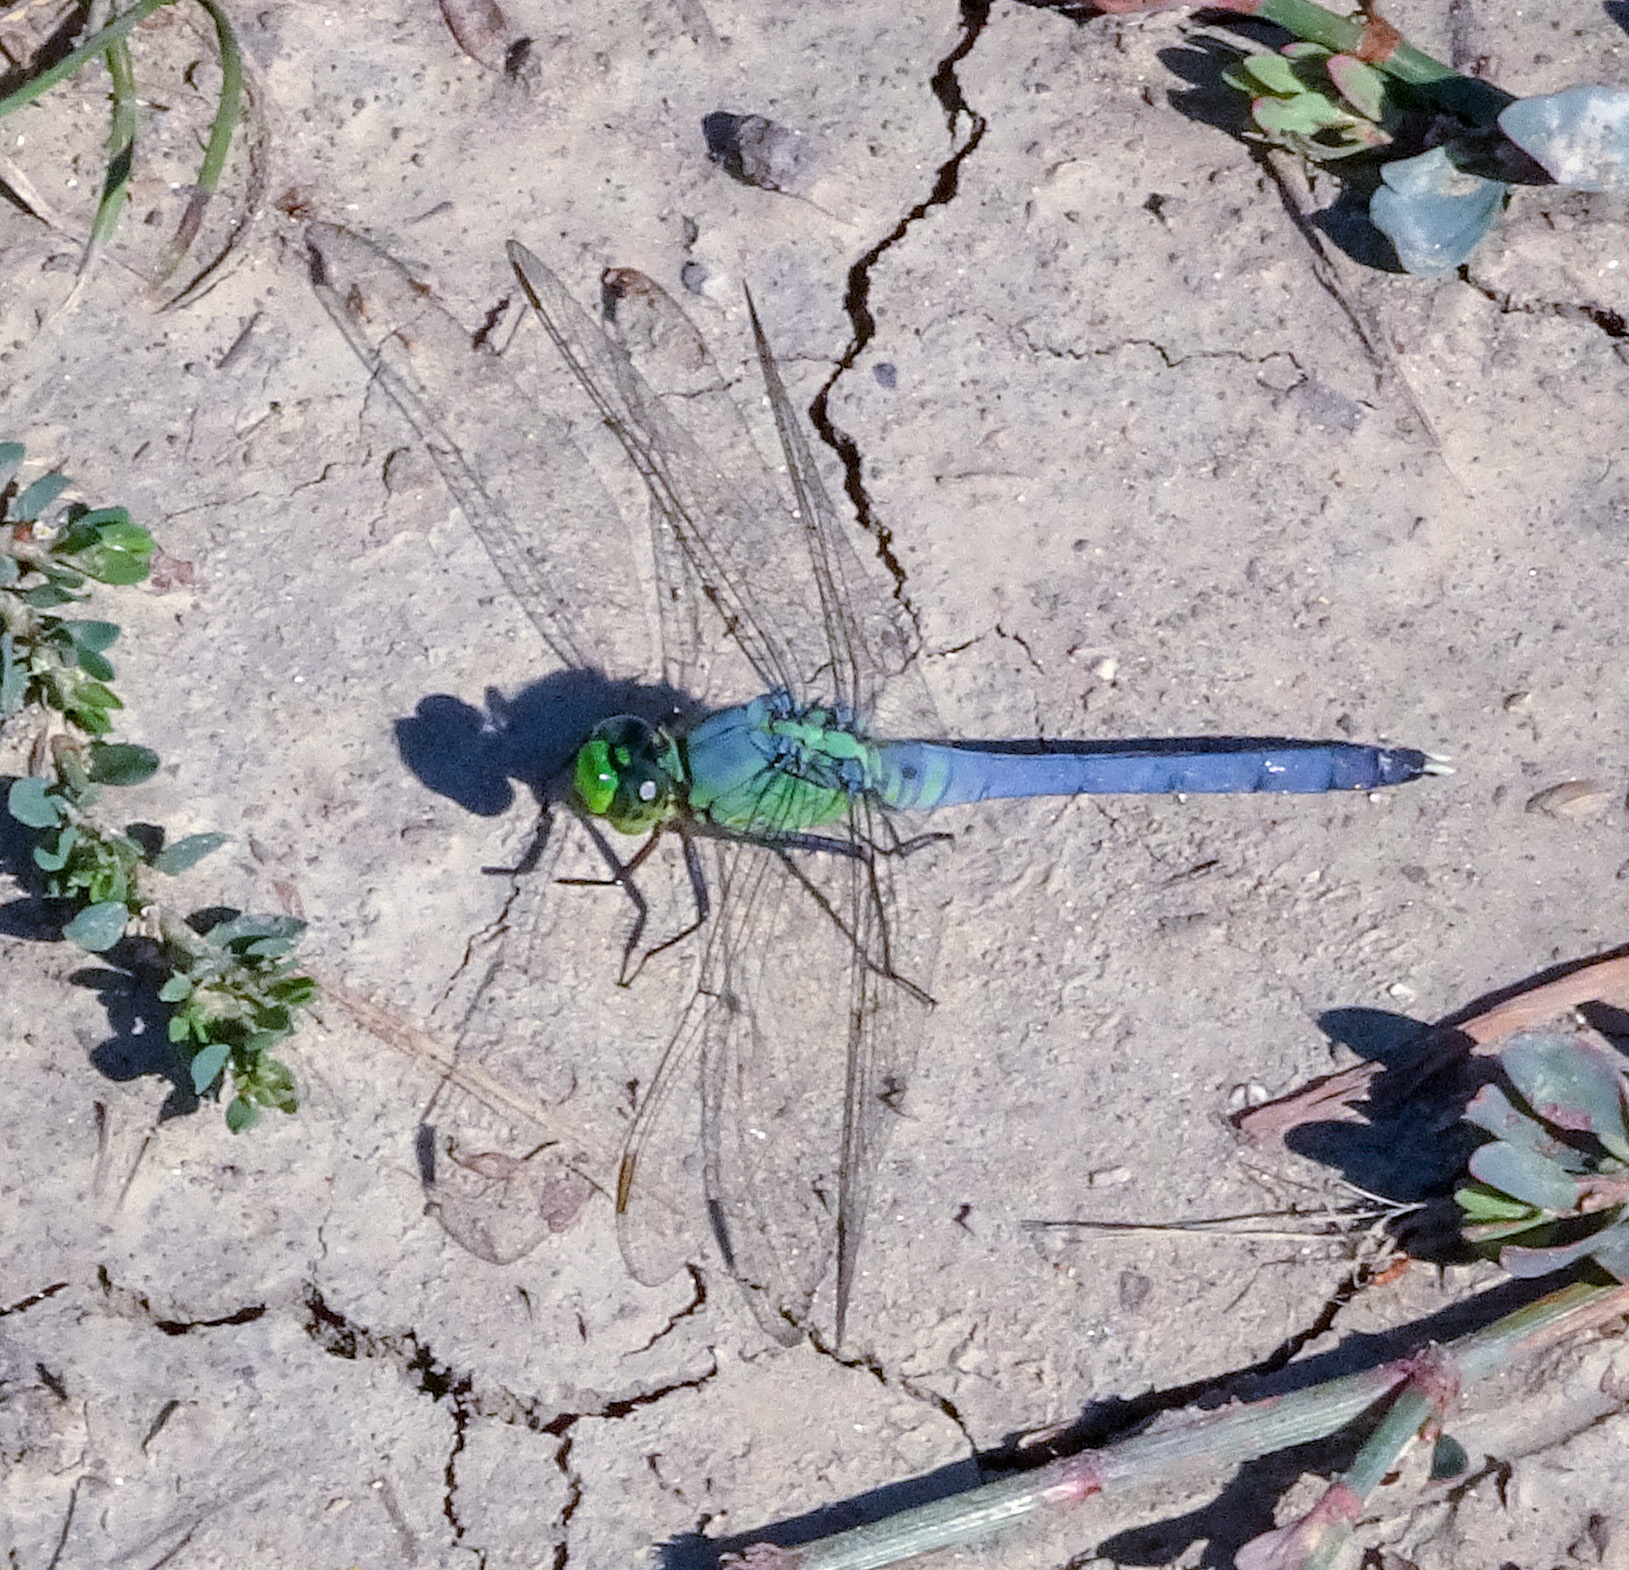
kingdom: Animalia
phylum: Arthropoda
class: Insecta
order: Odonata
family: Libellulidae
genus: Erythemis
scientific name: Erythemis simplicicollis
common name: Eastern pondhawk
